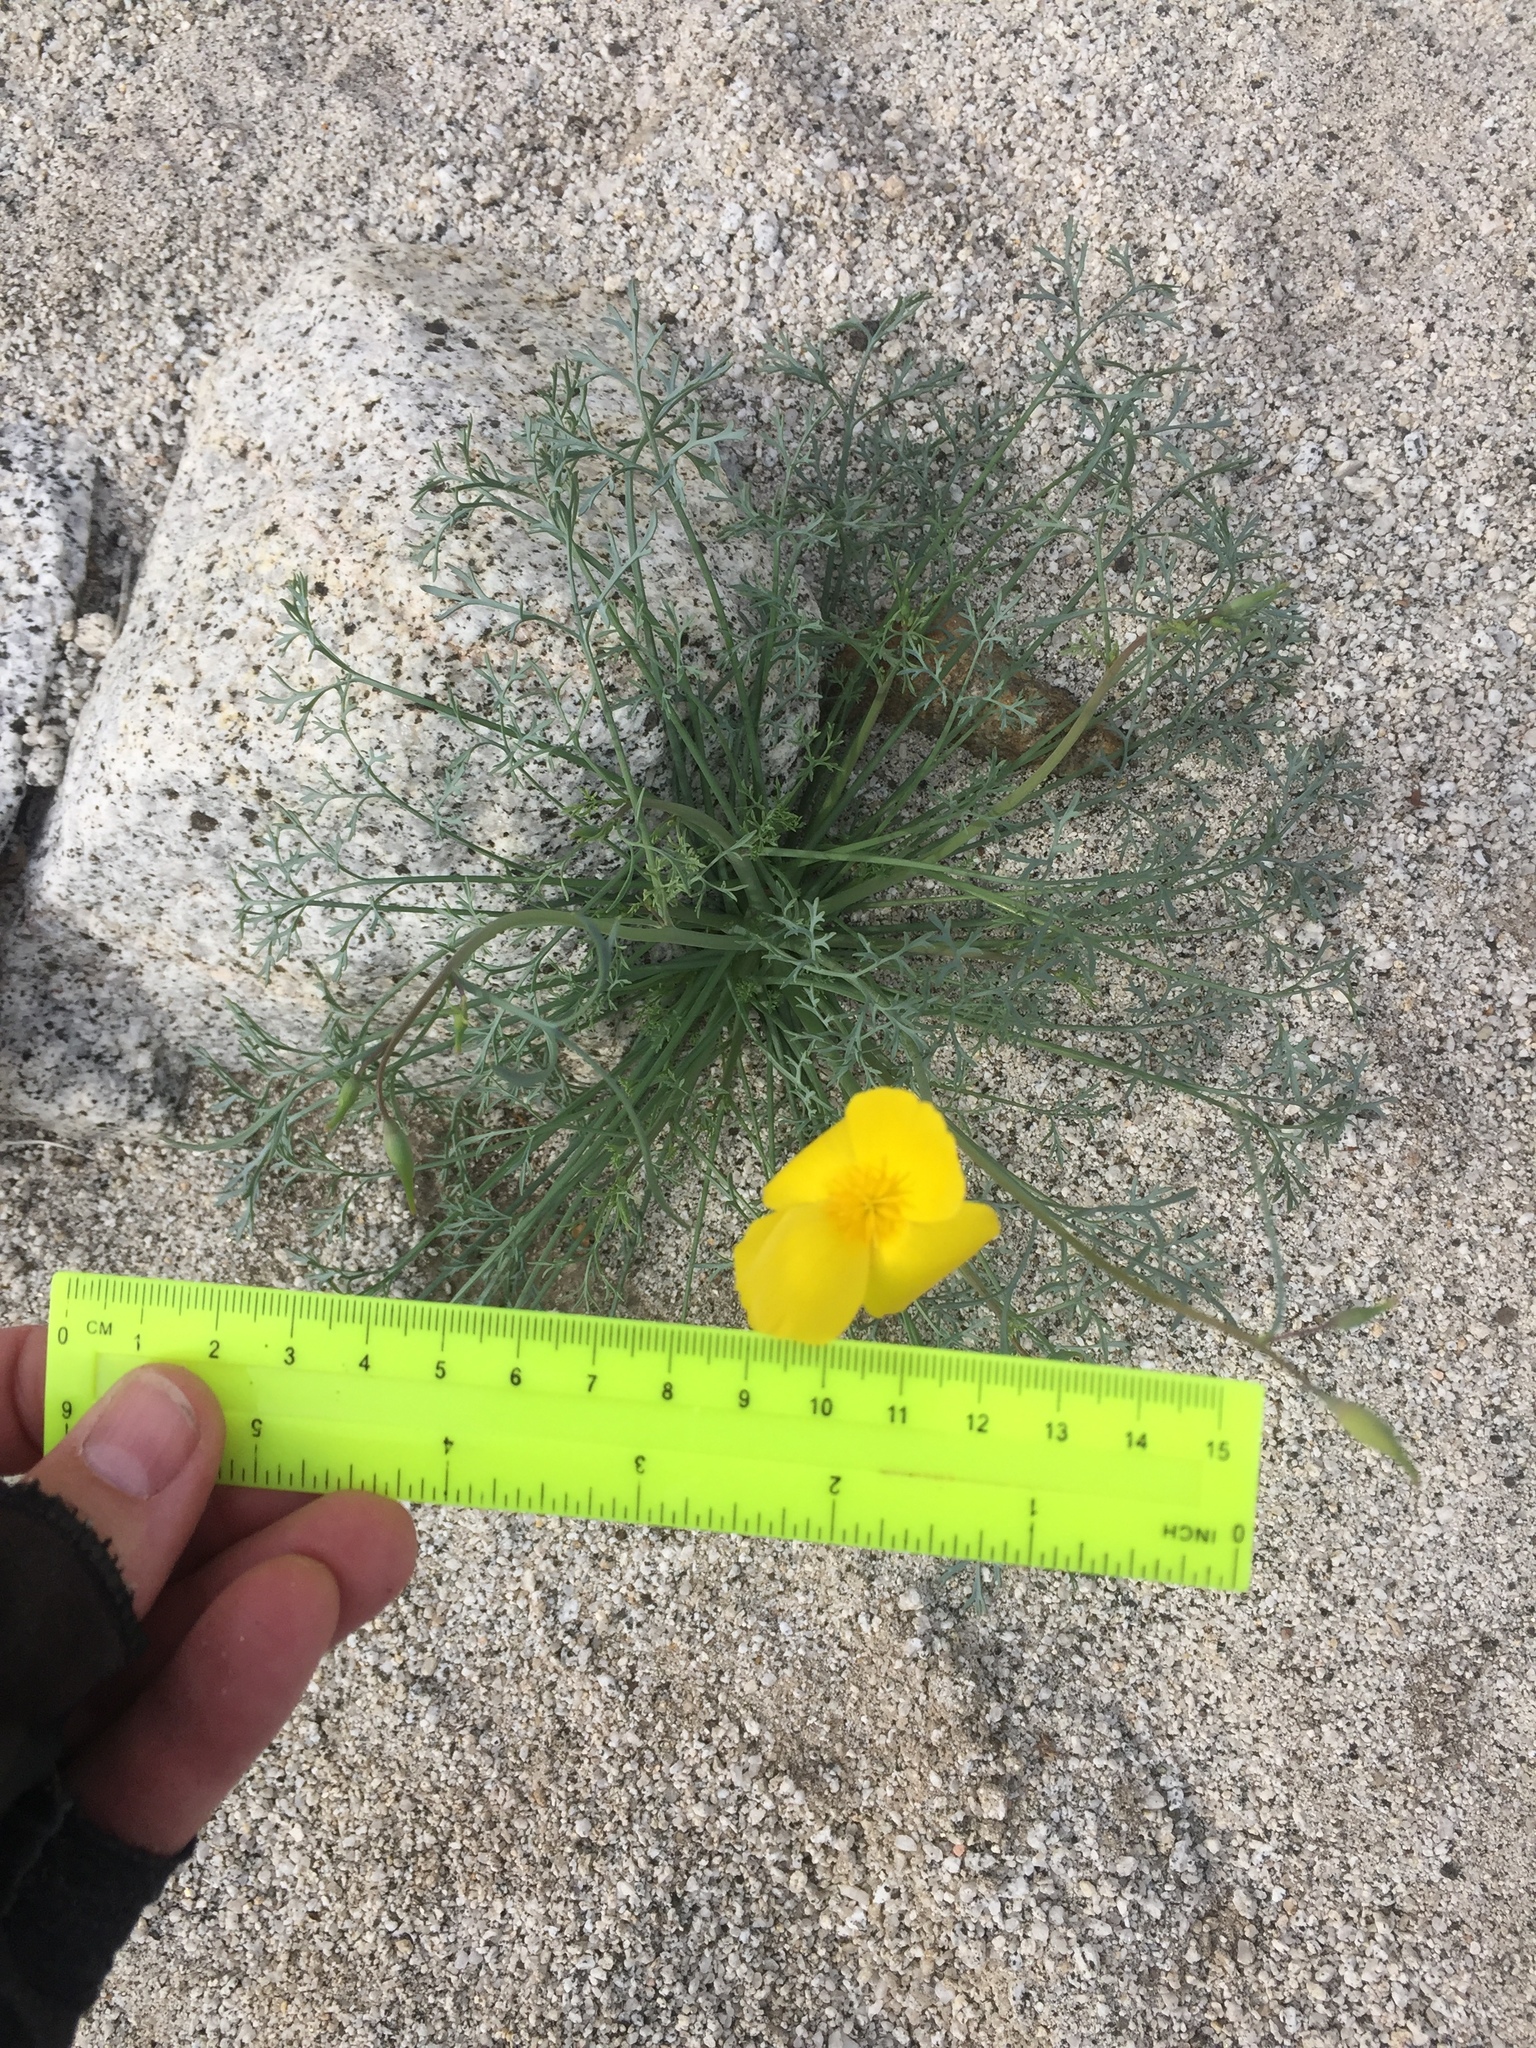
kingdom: Plantae
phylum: Tracheophyta
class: Magnoliopsida
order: Ranunculales
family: Papaveraceae
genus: Eschscholzia
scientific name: Eschscholzia parishii
